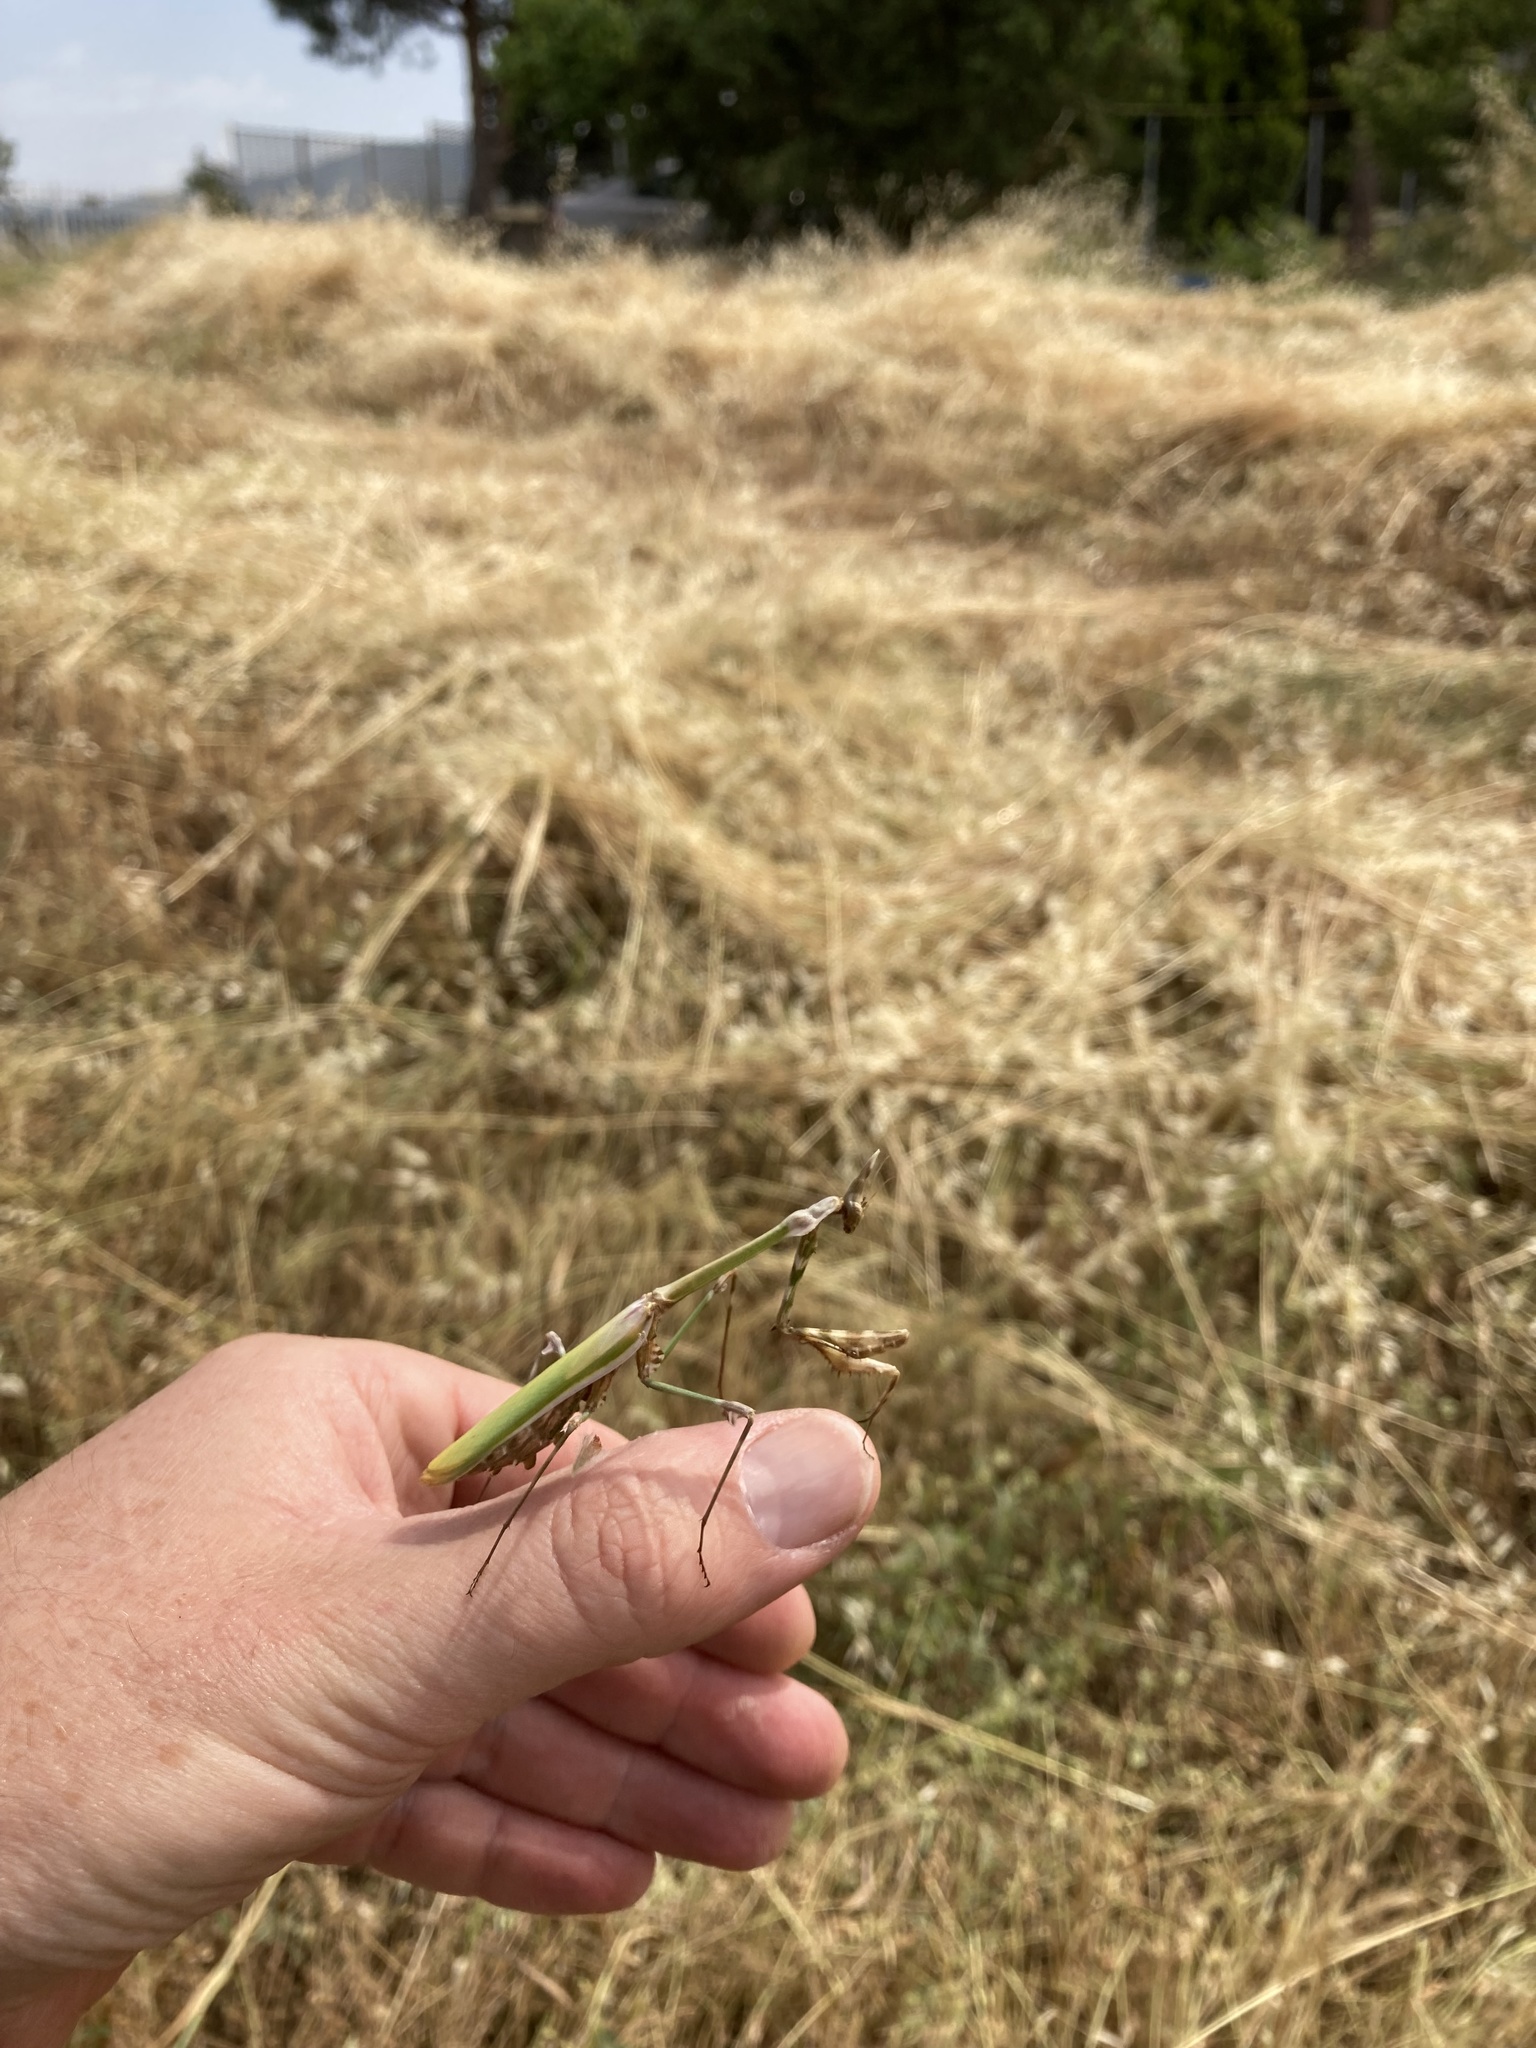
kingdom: Animalia
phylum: Arthropoda
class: Insecta
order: Mantodea
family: Empusidae
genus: Empusa
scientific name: Empusa fasciata
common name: Devil's mare
